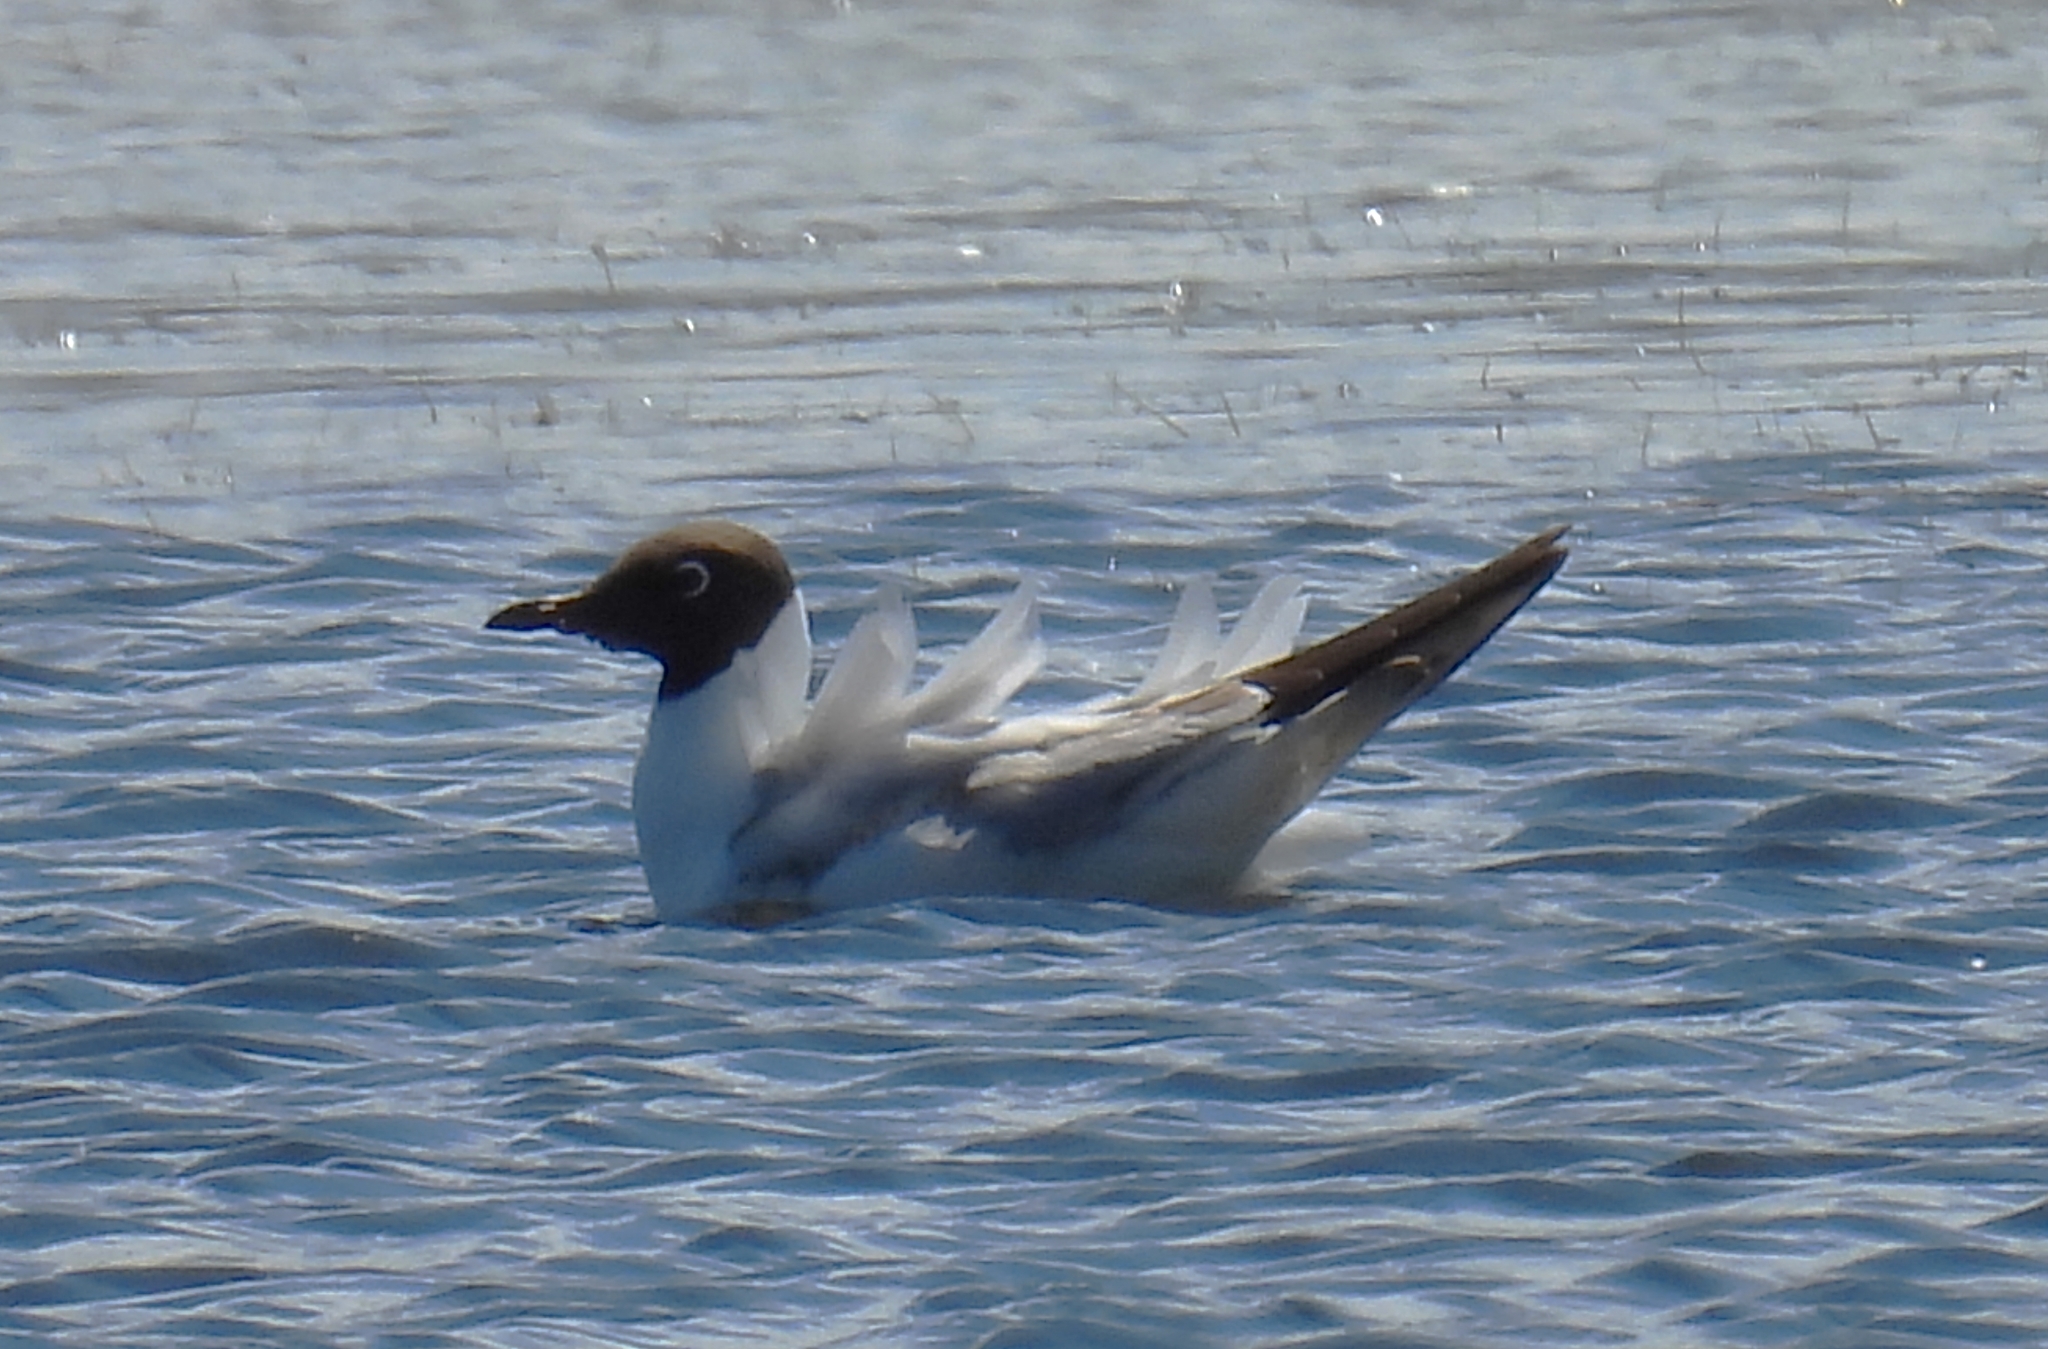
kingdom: Animalia
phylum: Chordata
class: Aves
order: Charadriiformes
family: Laridae
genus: Chroicocephalus
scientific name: Chroicocephalus ridibundus
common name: Black-headed gull
